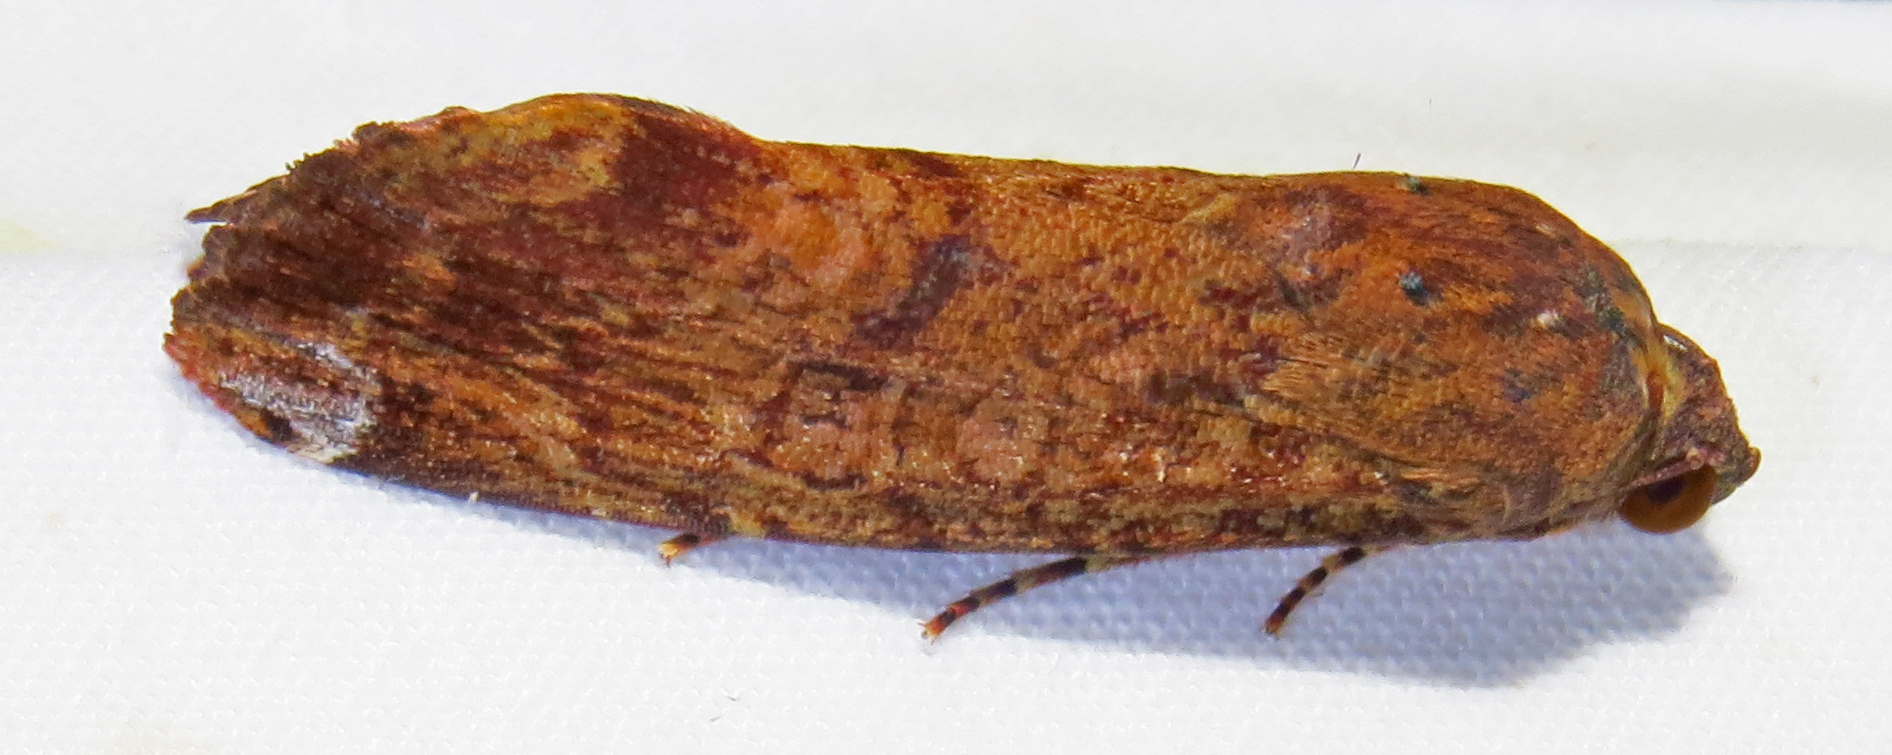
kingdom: Animalia
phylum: Arthropoda
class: Insecta
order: Lepidoptera
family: Noctuidae
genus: Magusa
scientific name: Magusa divaricata
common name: Orb narrow-winged moth
